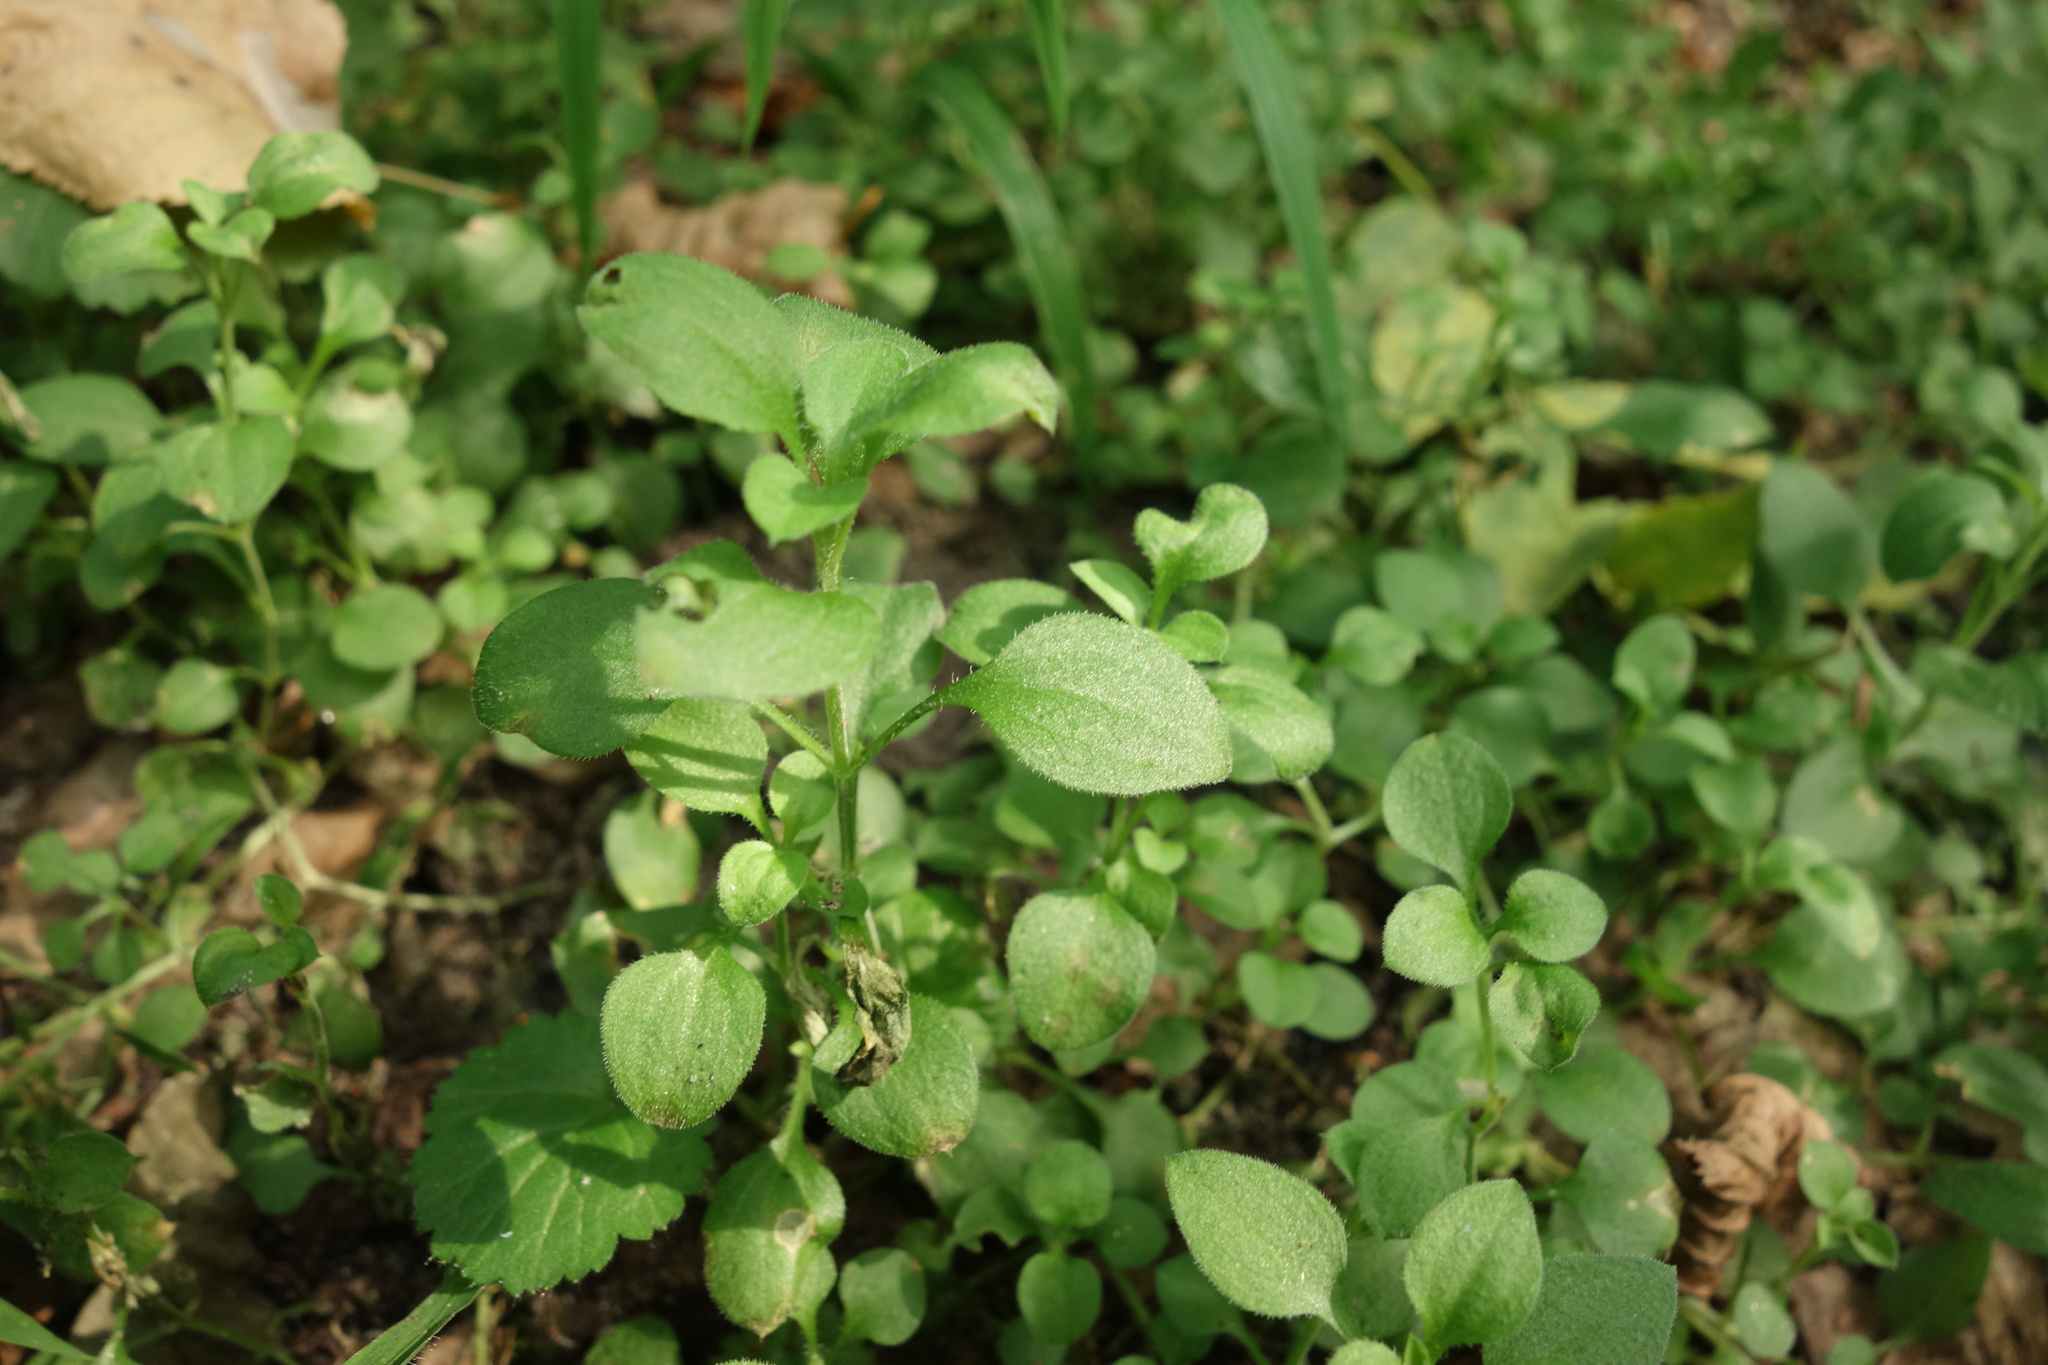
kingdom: Plantae
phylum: Tracheophyta
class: Magnoliopsida
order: Caryophyllales
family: Caryophyllaceae
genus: Moehringia
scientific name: Moehringia trinervia
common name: Three-nerved sandwort
